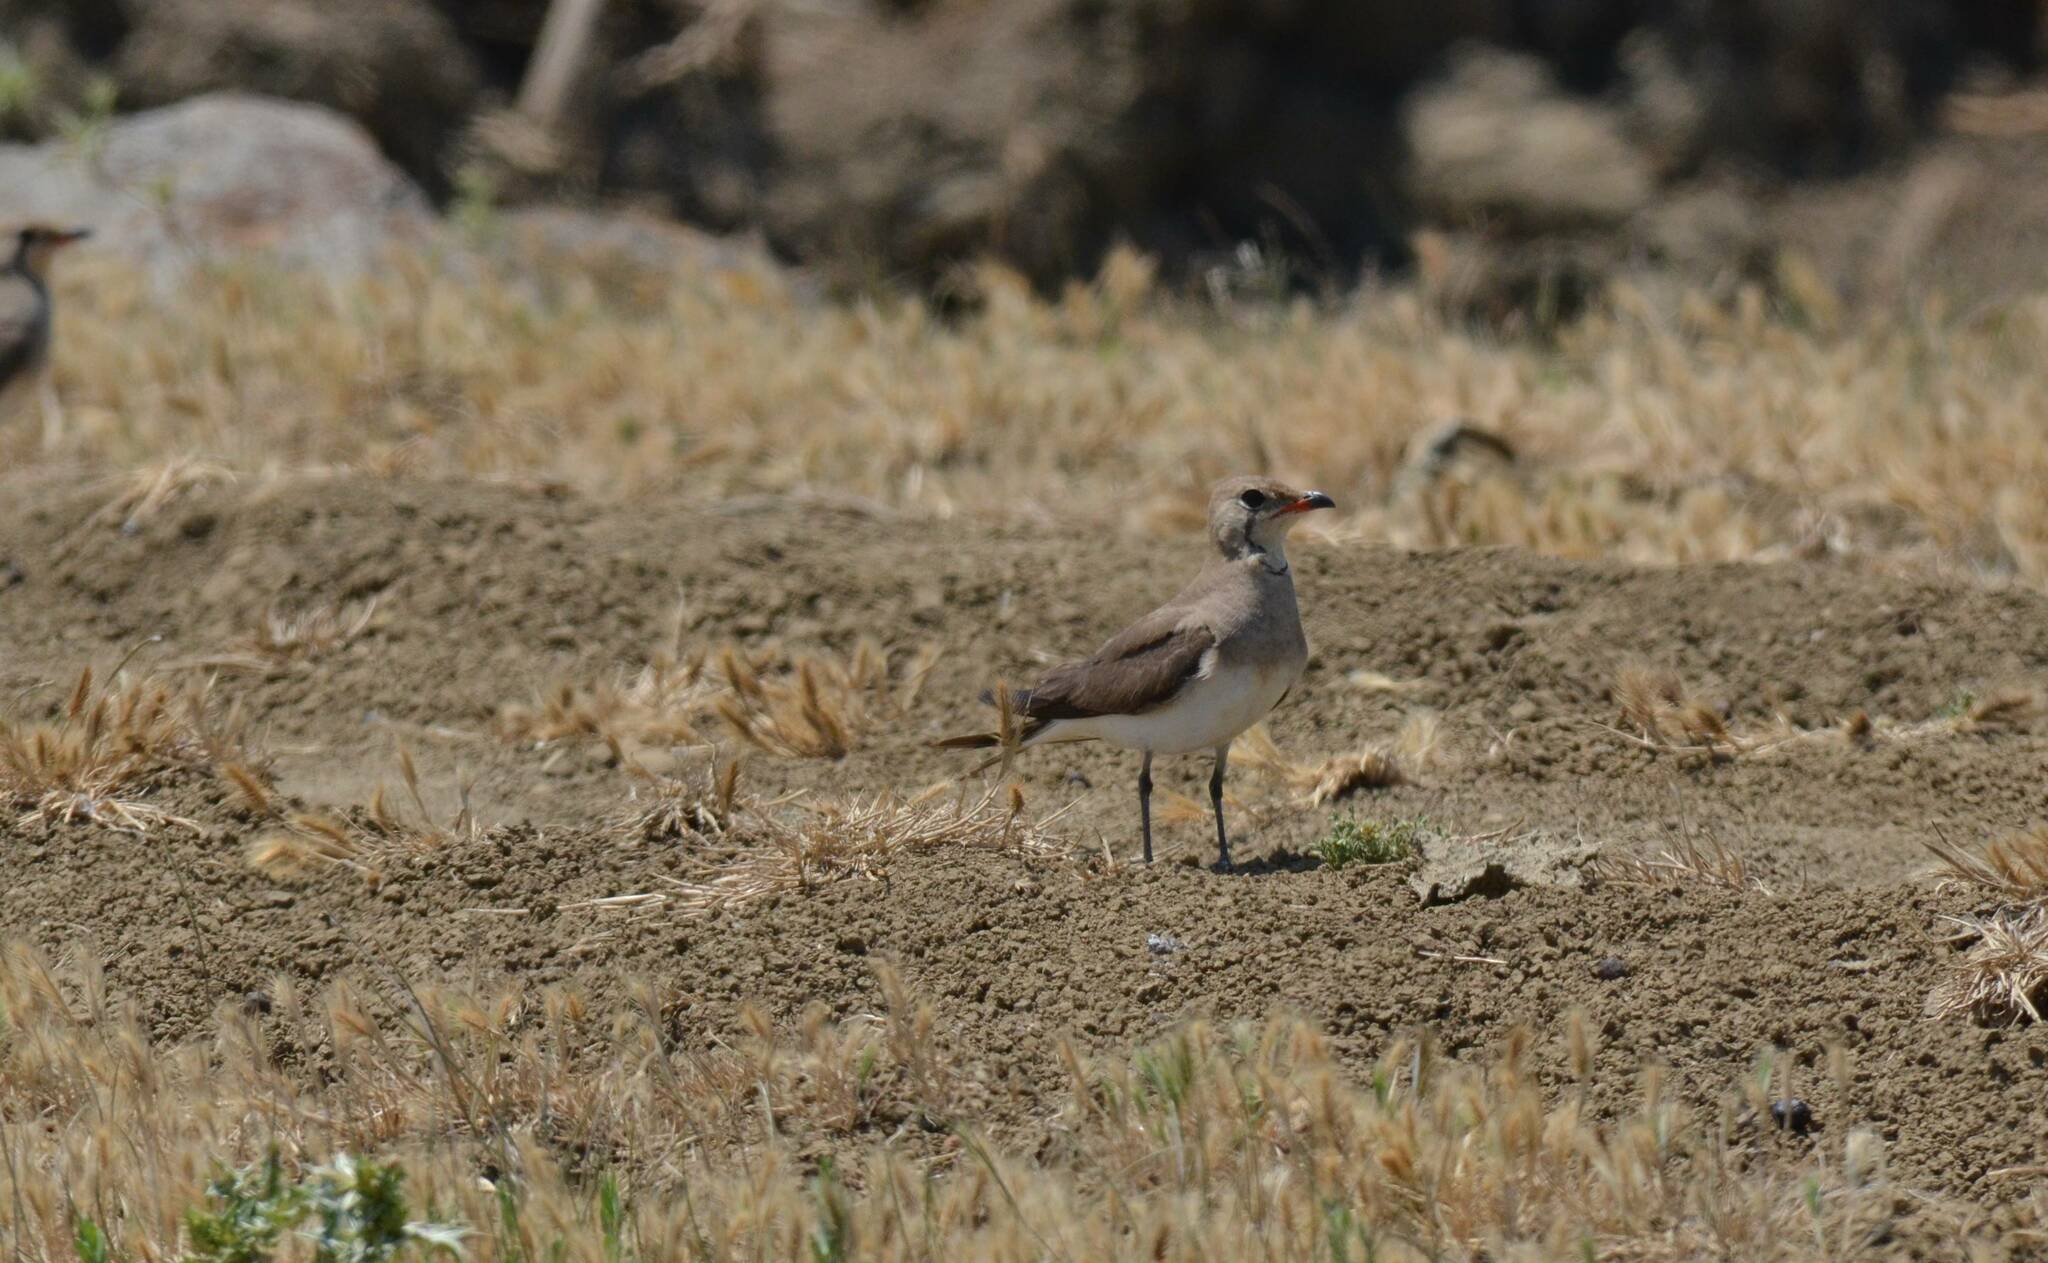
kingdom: Animalia
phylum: Chordata
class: Aves
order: Charadriiformes
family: Glareolidae
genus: Glareola
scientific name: Glareola pratincola
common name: Collared pratincole
